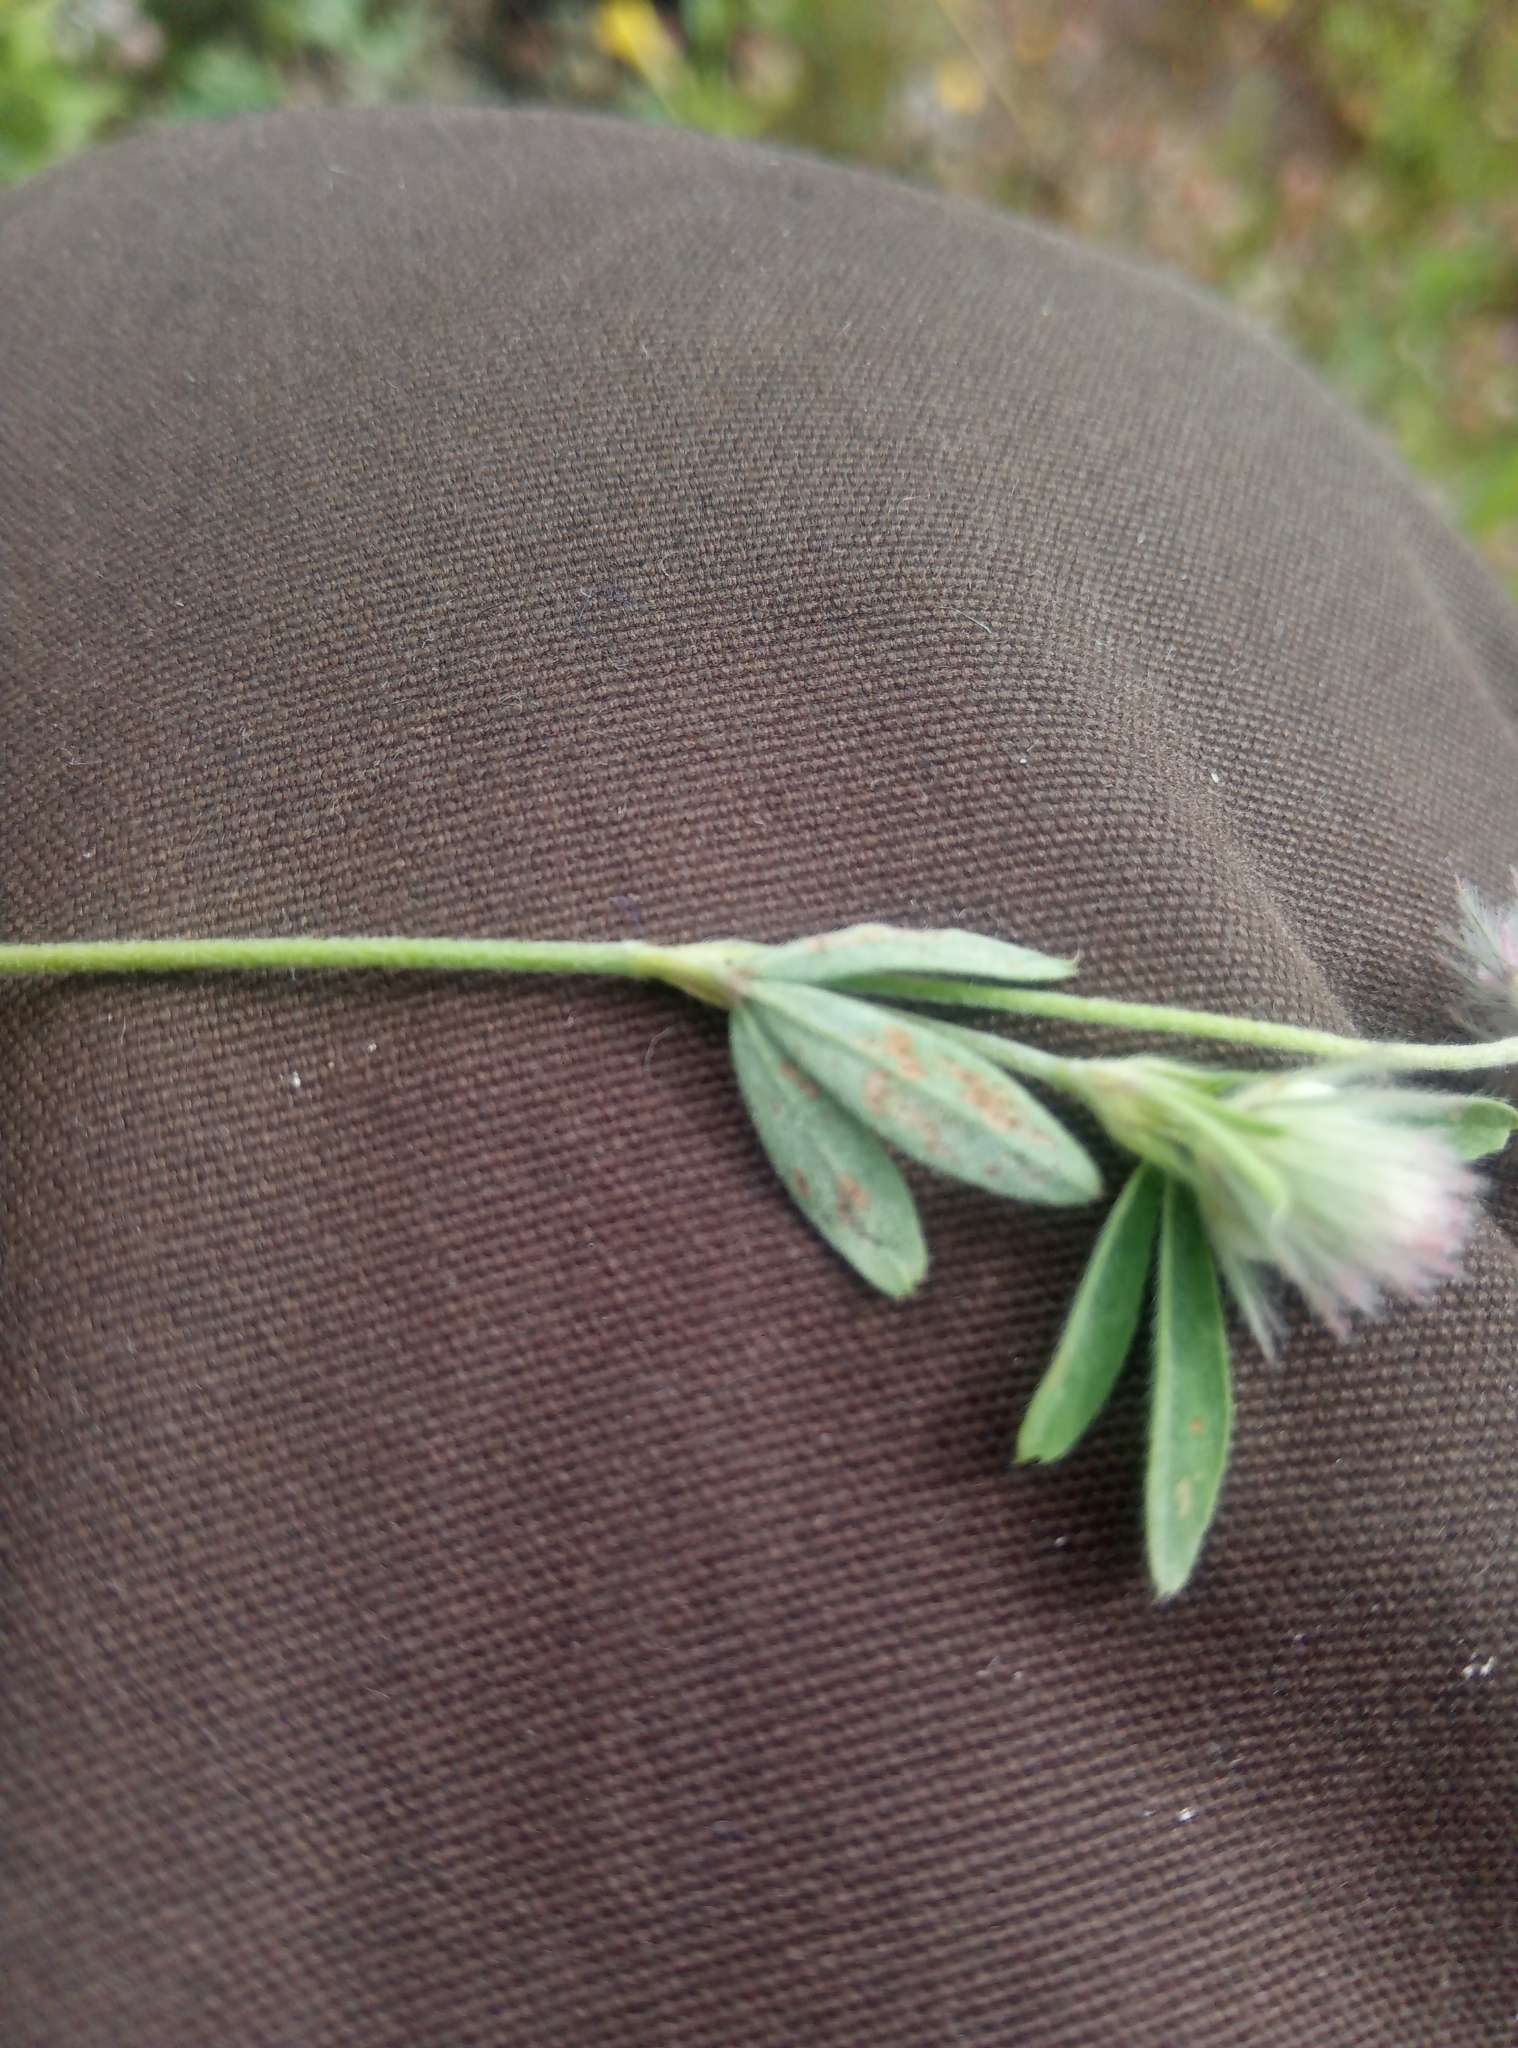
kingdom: Plantae
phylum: Tracheophyta
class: Magnoliopsida
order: Fabales
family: Fabaceae
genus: Trifolium
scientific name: Trifolium arvense
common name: Hare's-foot clover
